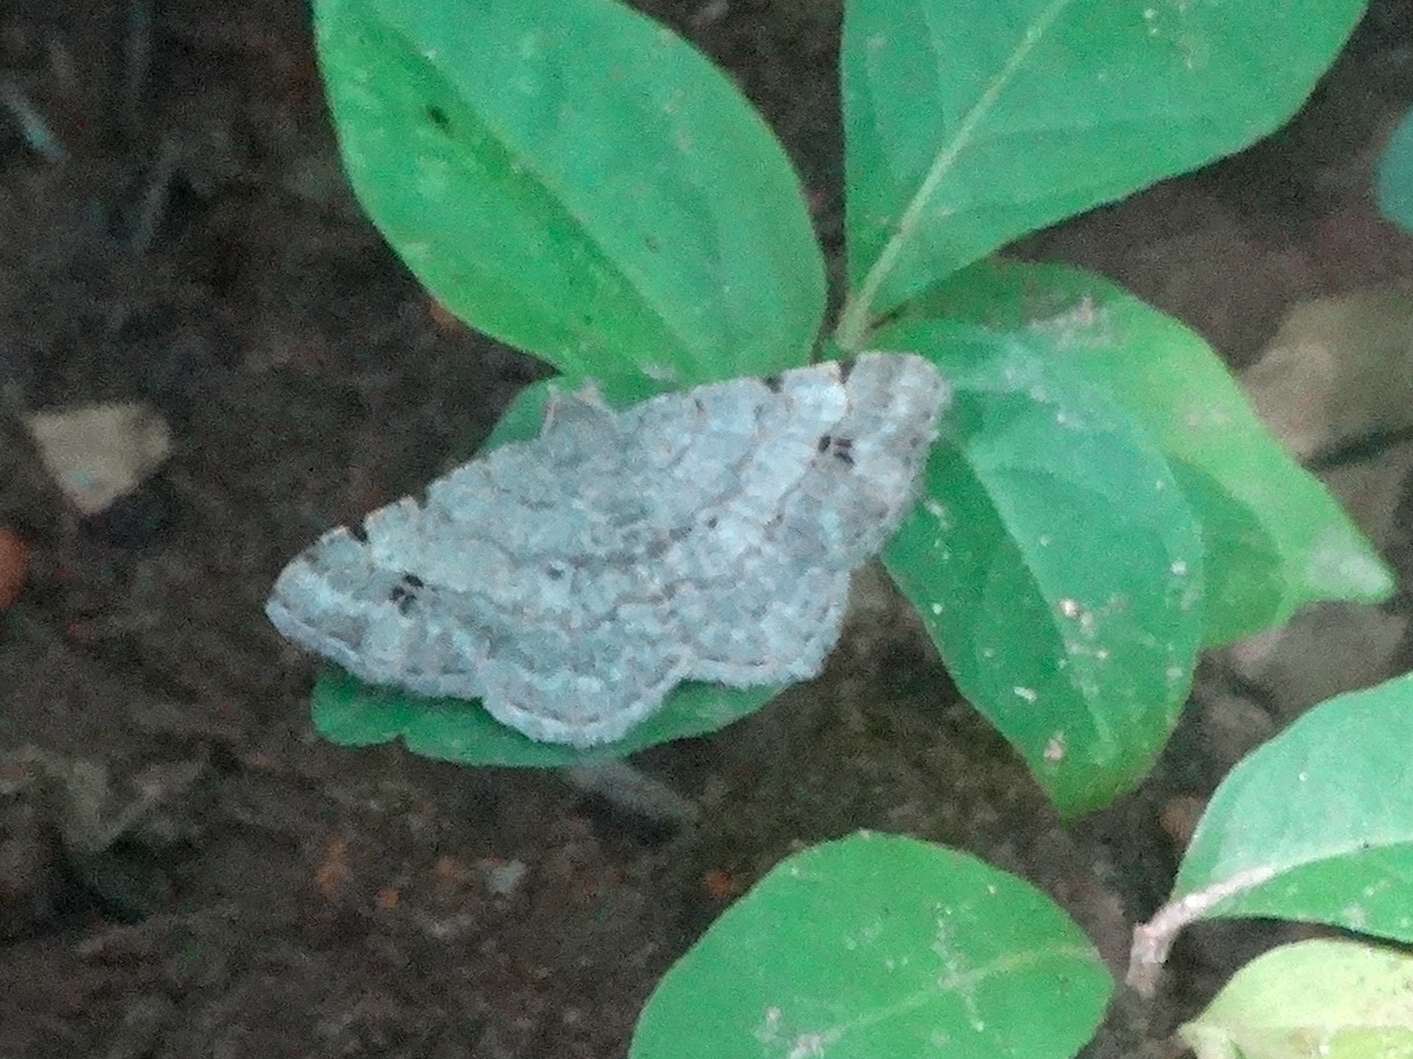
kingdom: Animalia
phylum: Arthropoda
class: Insecta
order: Lepidoptera
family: Pterophoridae
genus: Platyptilia
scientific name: Platyptilia
